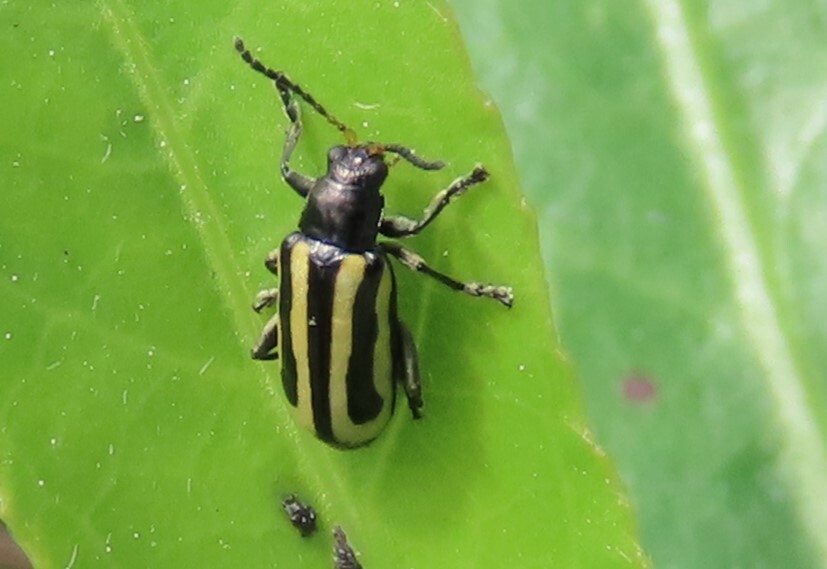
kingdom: Animalia
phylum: Arthropoda
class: Insecta
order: Coleoptera
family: Chrysomelidae
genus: Agasicles
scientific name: Agasicles hygrophila
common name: Alligatorweed flea beetle
